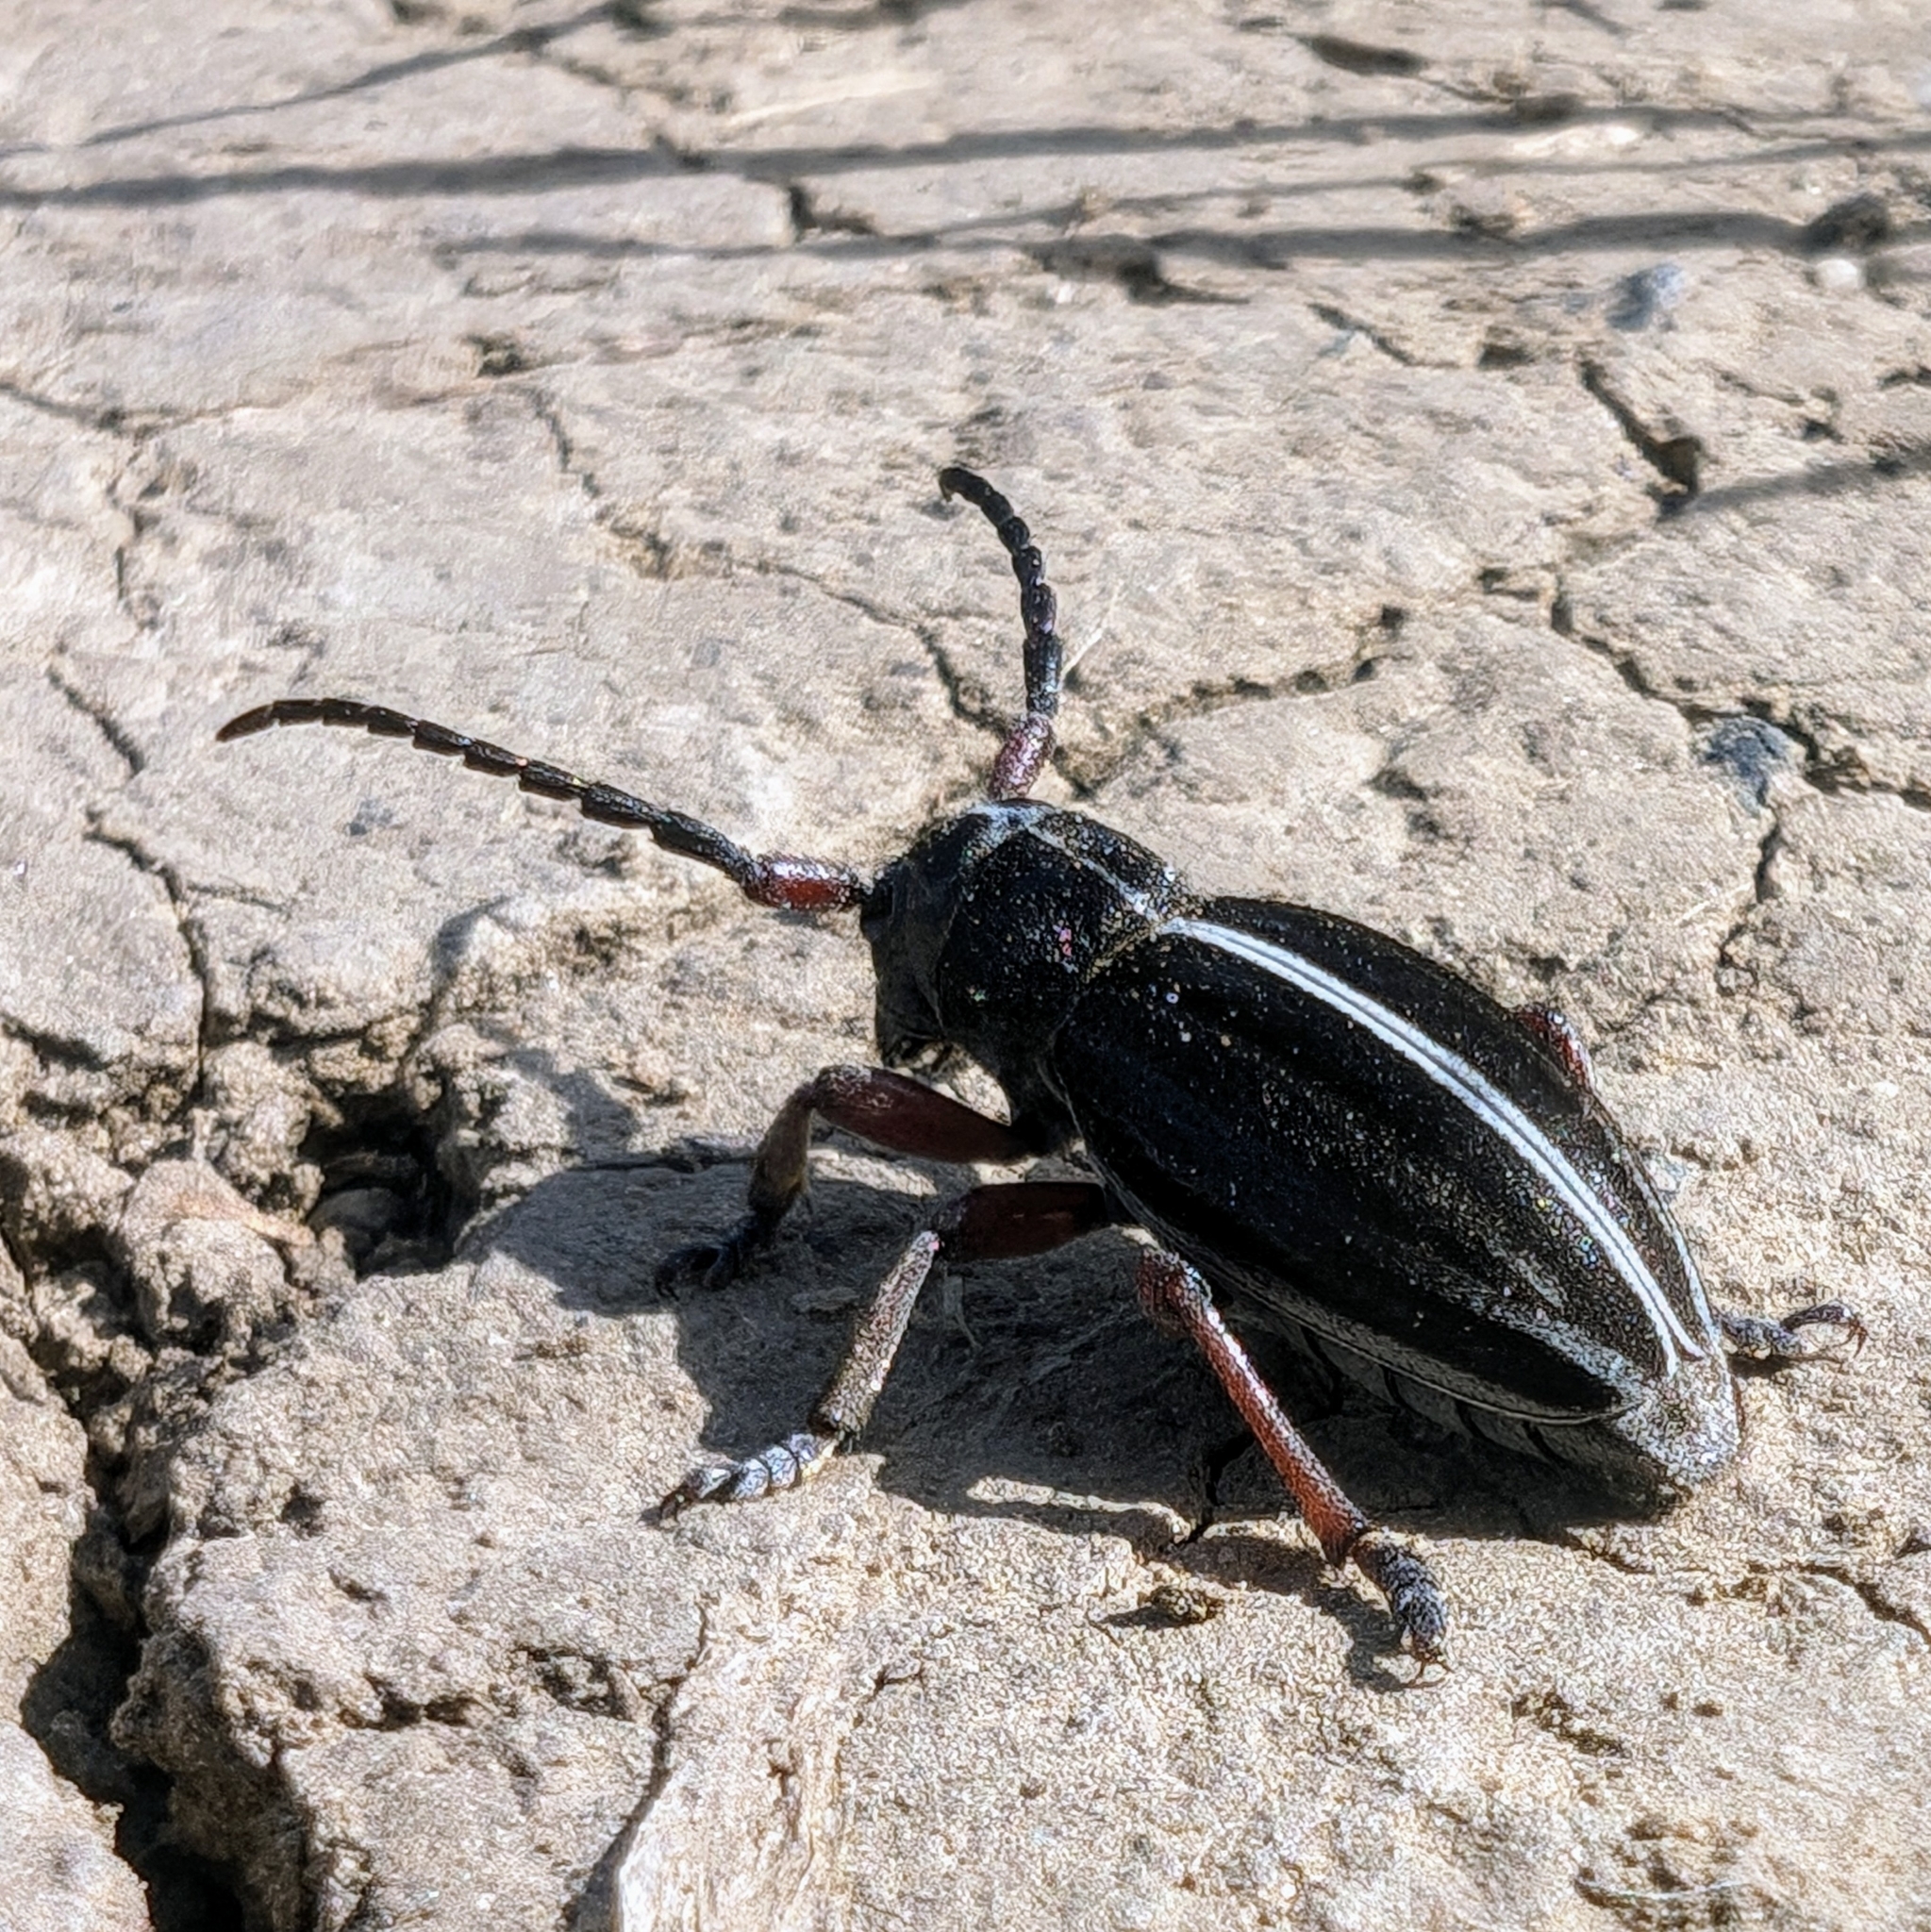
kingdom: Animalia
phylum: Arthropoda
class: Insecta
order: Coleoptera
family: Cerambycidae
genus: Dorcadion
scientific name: Dorcadion pedestre
